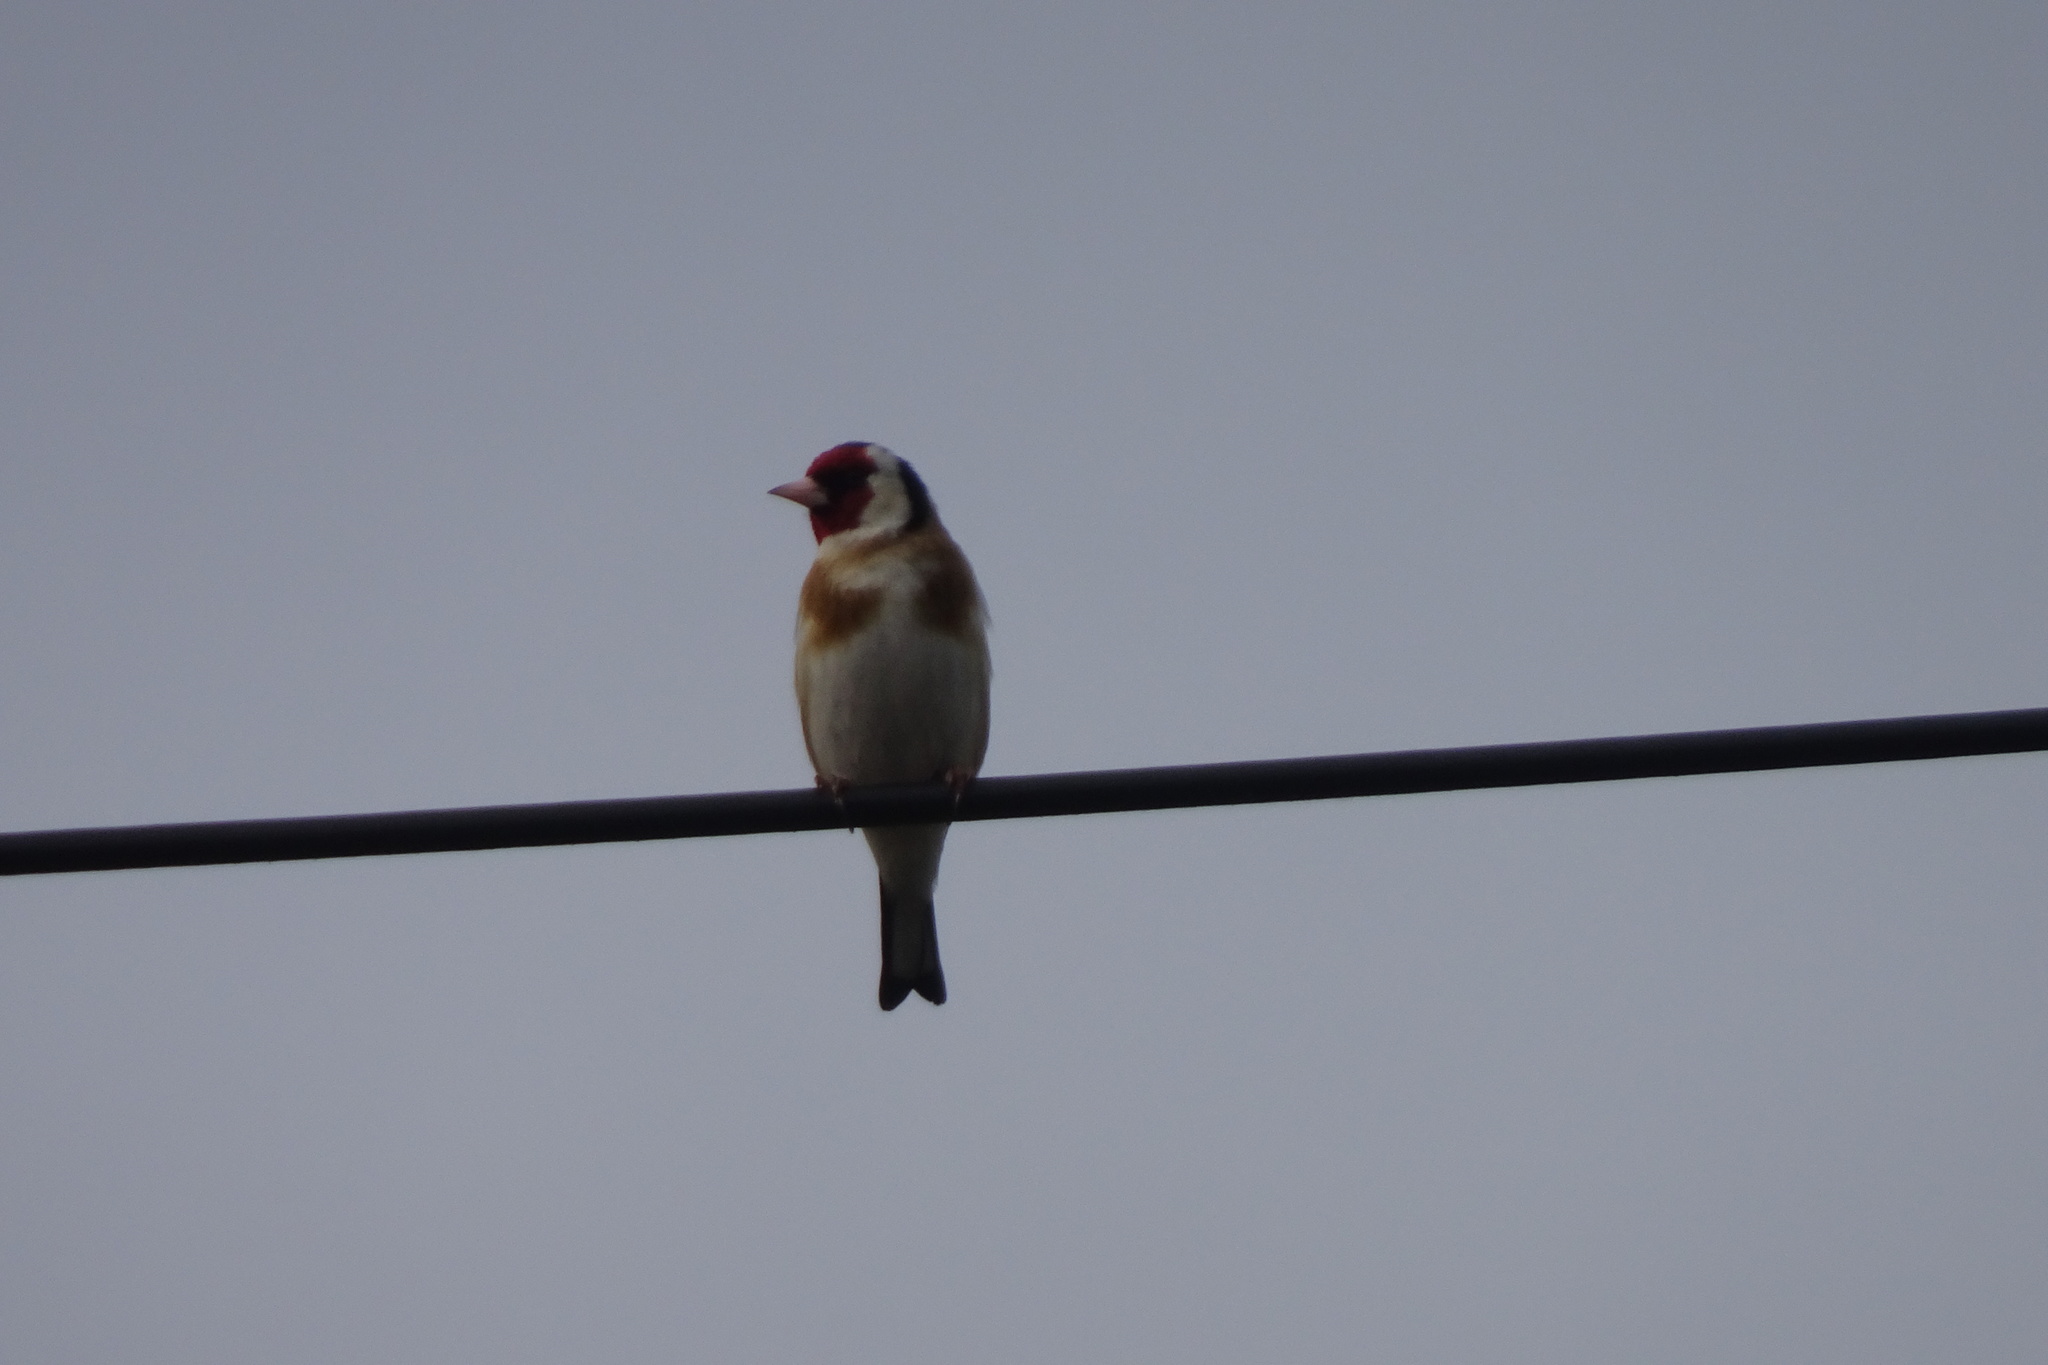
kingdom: Animalia
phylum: Chordata
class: Aves
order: Passeriformes
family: Fringillidae
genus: Carduelis
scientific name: Carduelis carduelis
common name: European goldfinch
